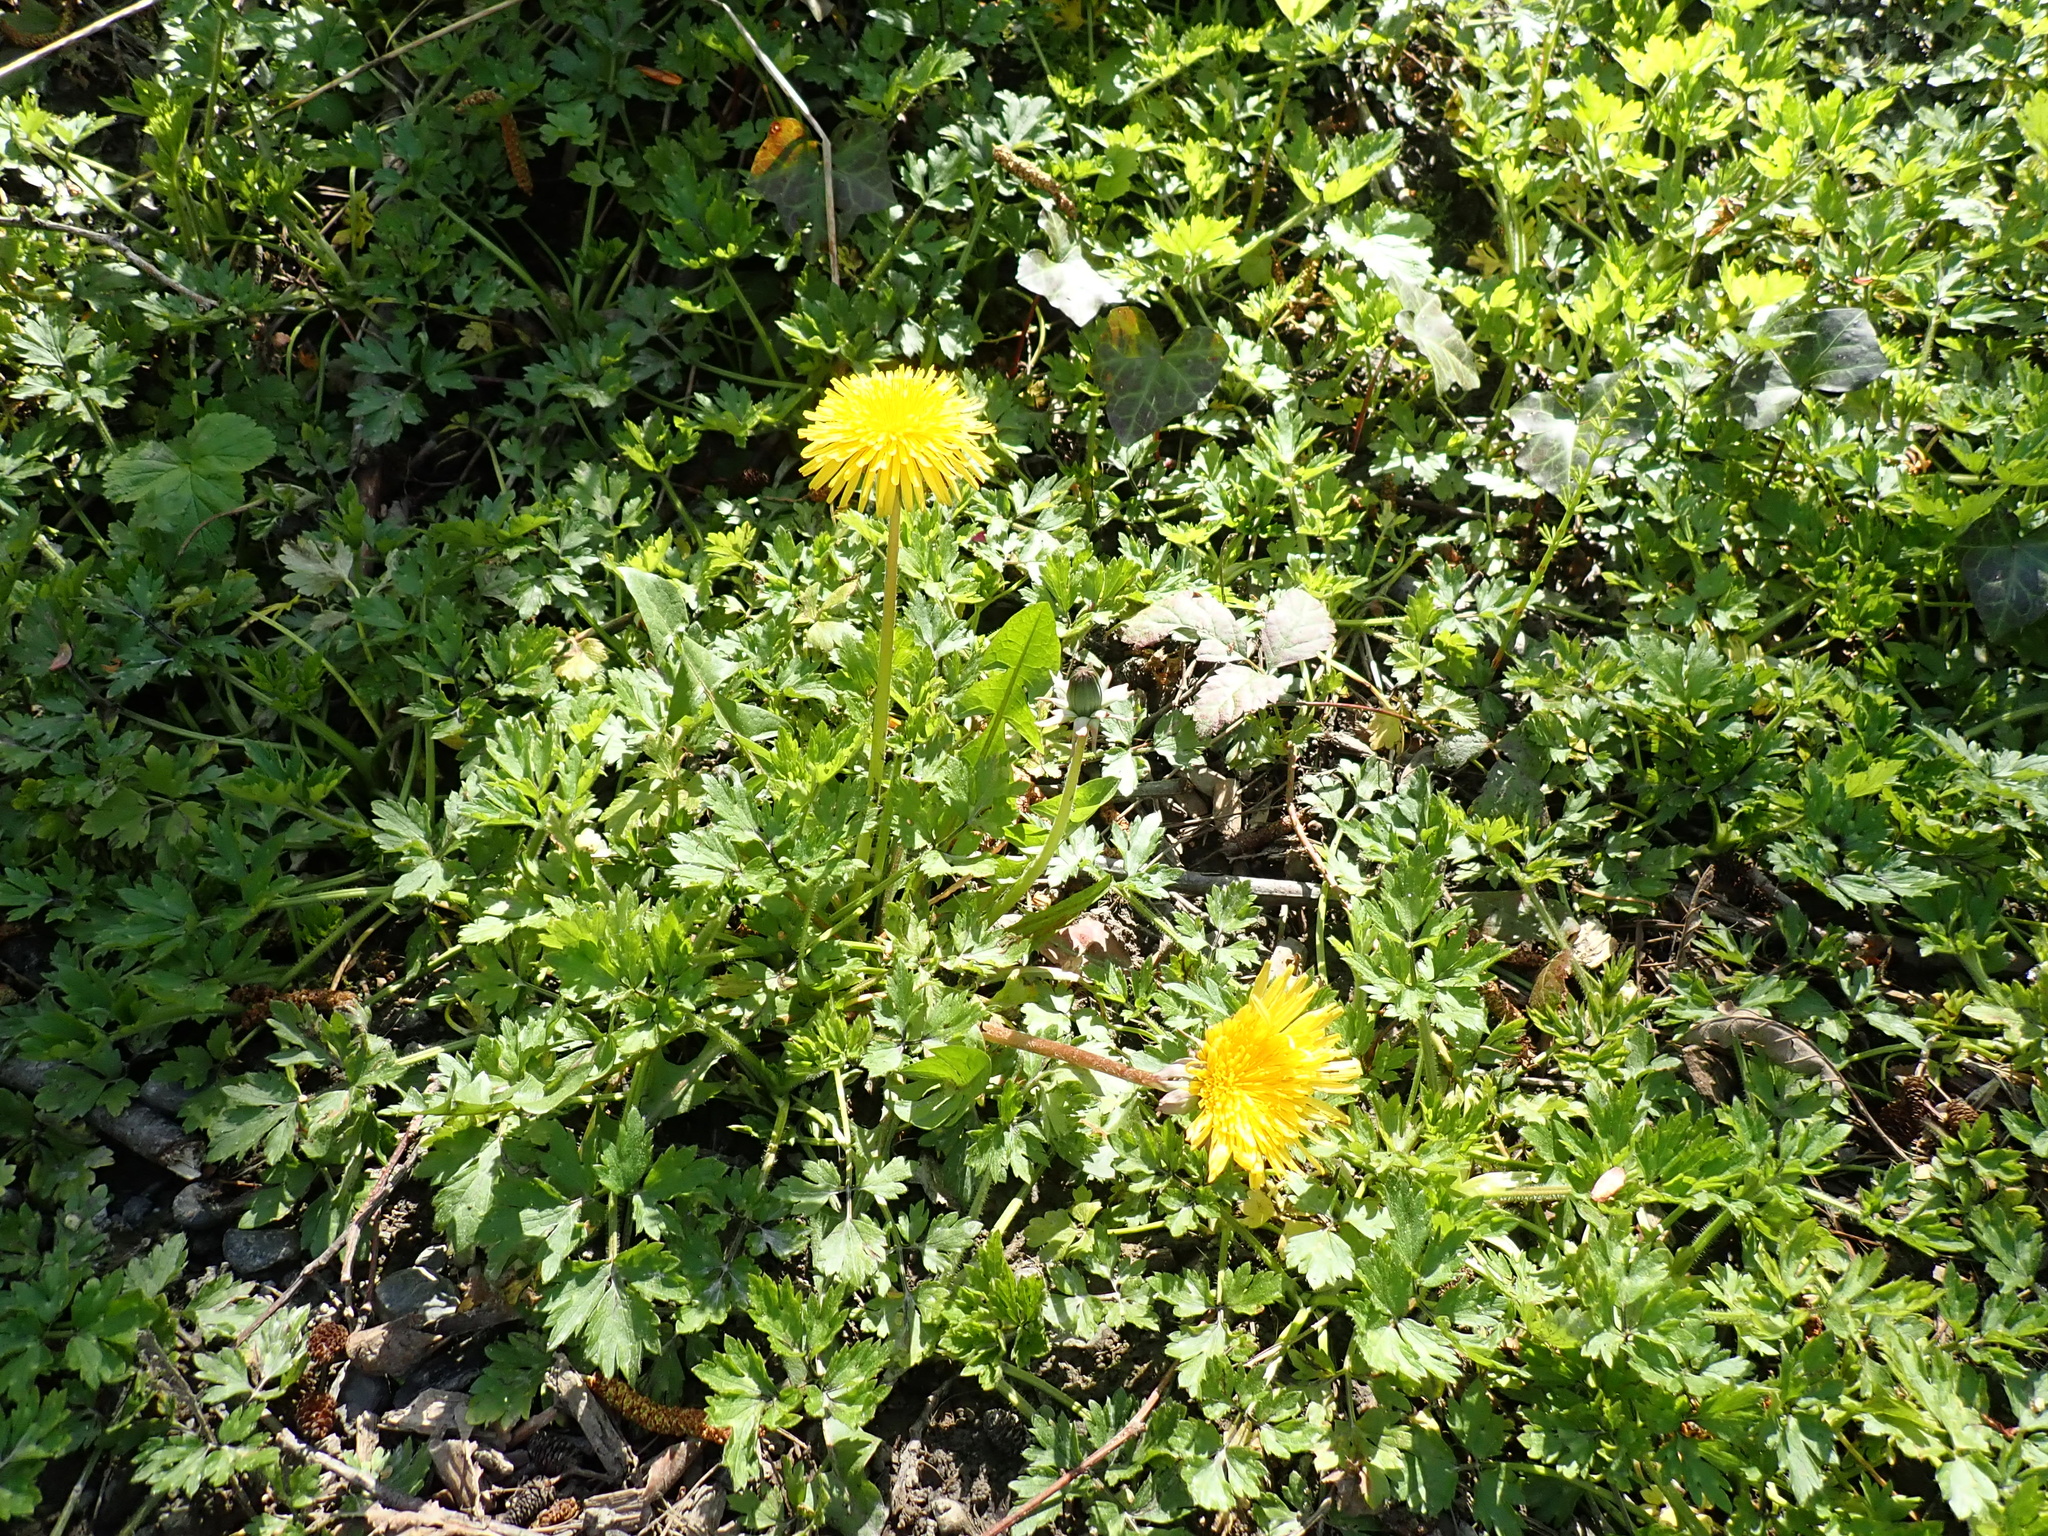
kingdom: Plantae
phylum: Tracheophyta
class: Magnoliopsida
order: Asterales
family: Asteraceae
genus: Taraxacum
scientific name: Taraxacum officinale
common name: Common dandelion
